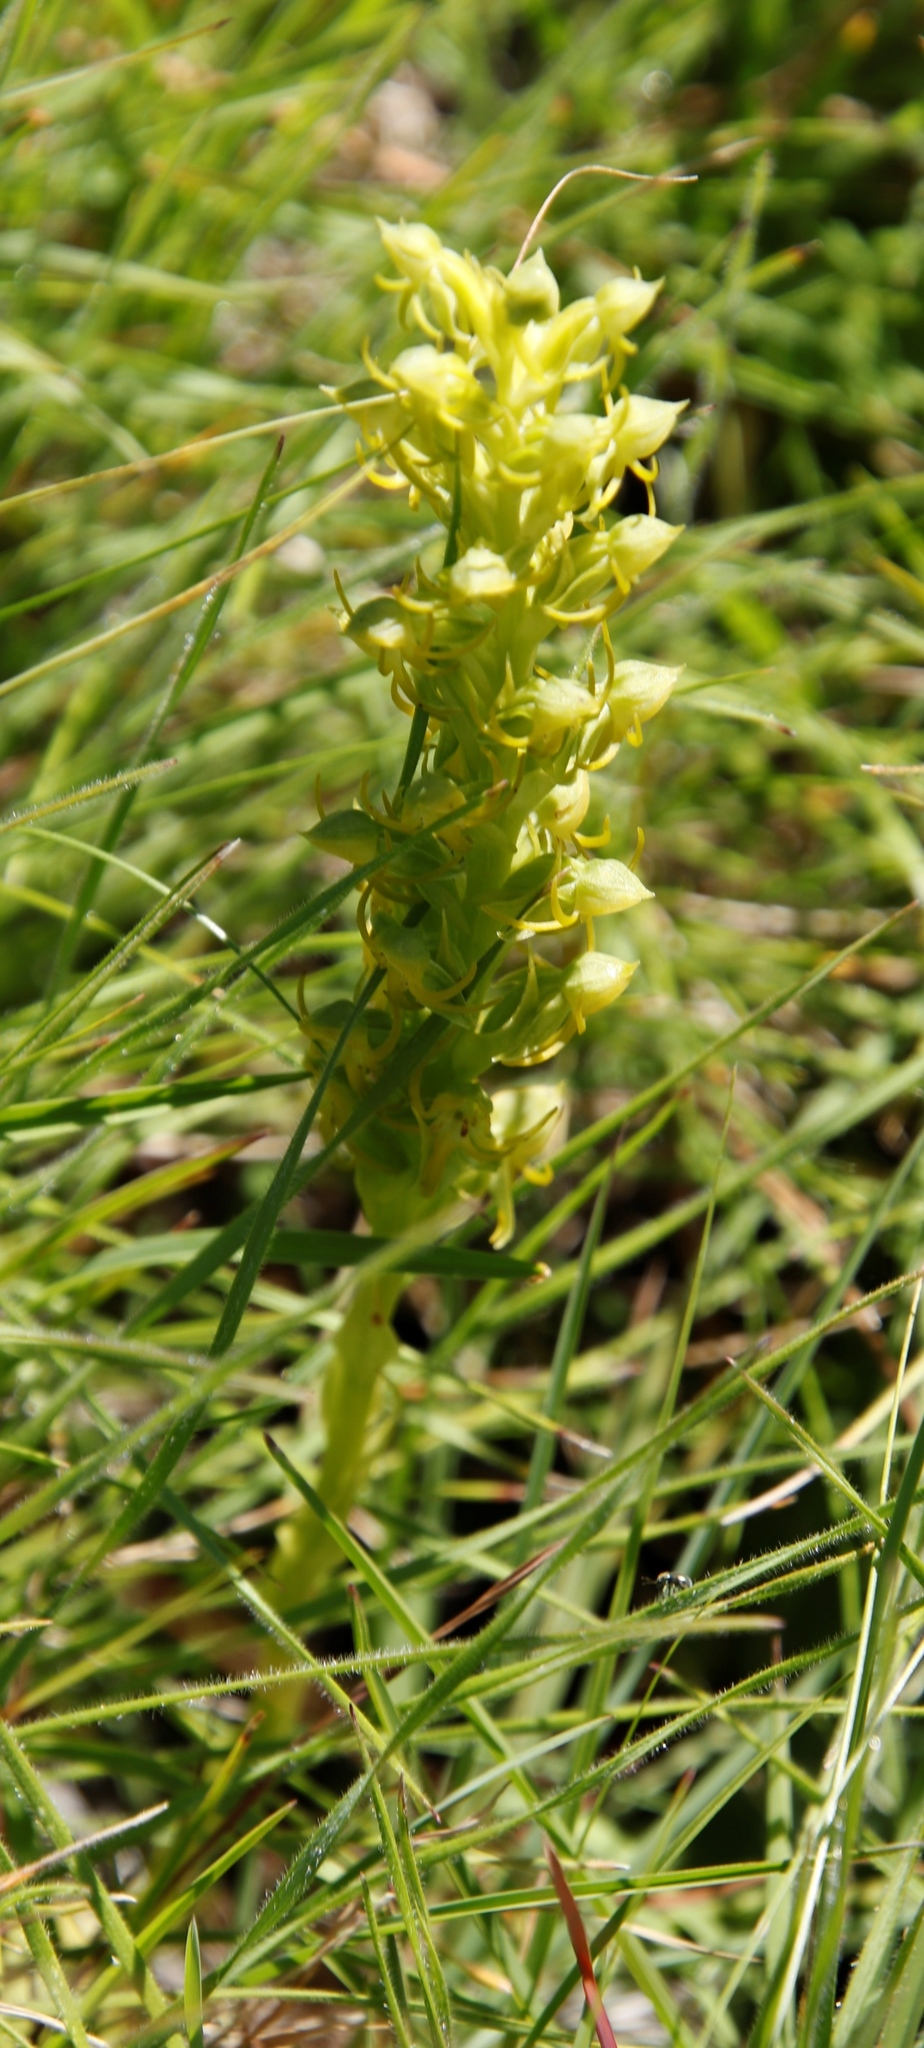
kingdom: Plantae
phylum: Tracheophyta
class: Liliopsida
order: Asparagales
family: Orchidaceae
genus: Habenaria
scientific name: Habenaria lithophila
